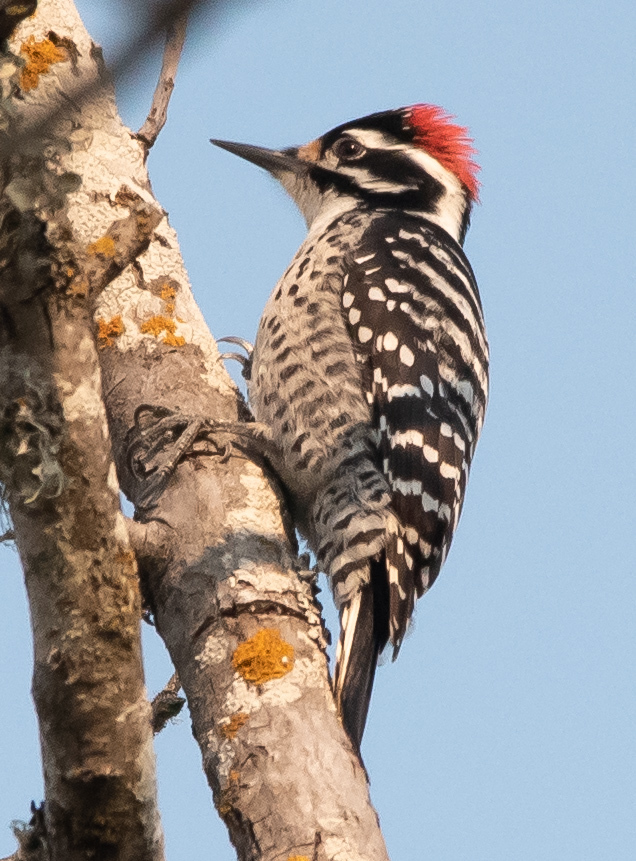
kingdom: Animalia
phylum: Chordata
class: Aves
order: Piciformes
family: Picidae
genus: Dryobates
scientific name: Dryobates nuttallii
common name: Nuttall's woodpecker
